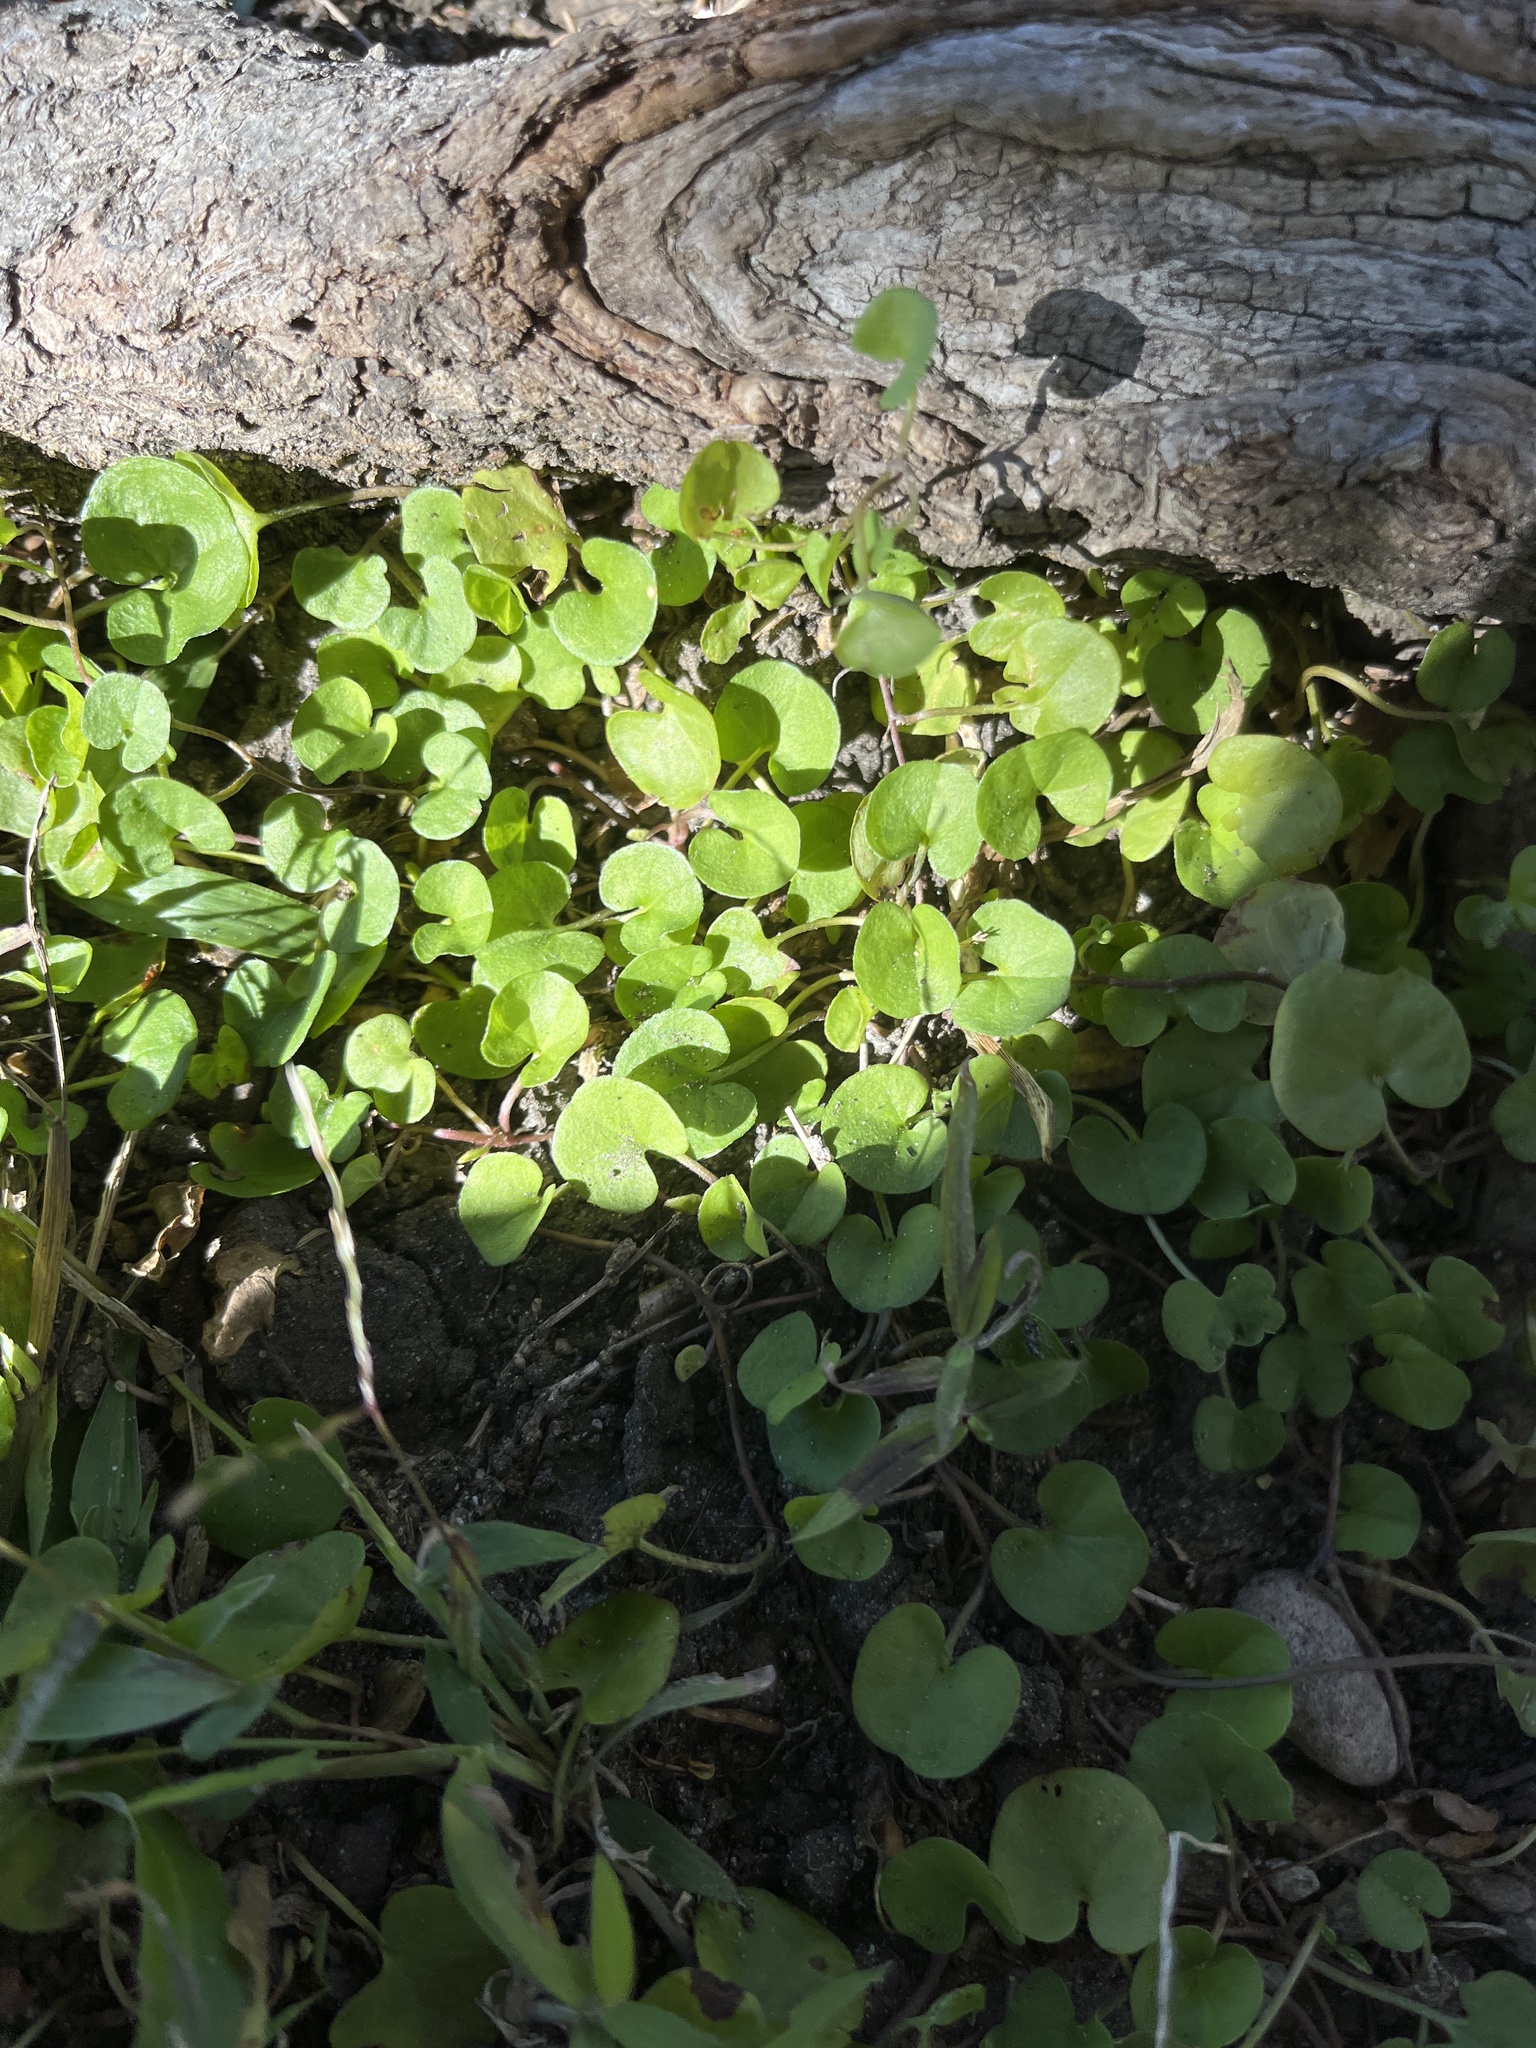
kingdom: Plantae
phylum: Tracheophyta
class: Magnoliopsida
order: Solanales
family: Convolvulaceae
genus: Dichondra
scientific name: Dichondra carolinensis
